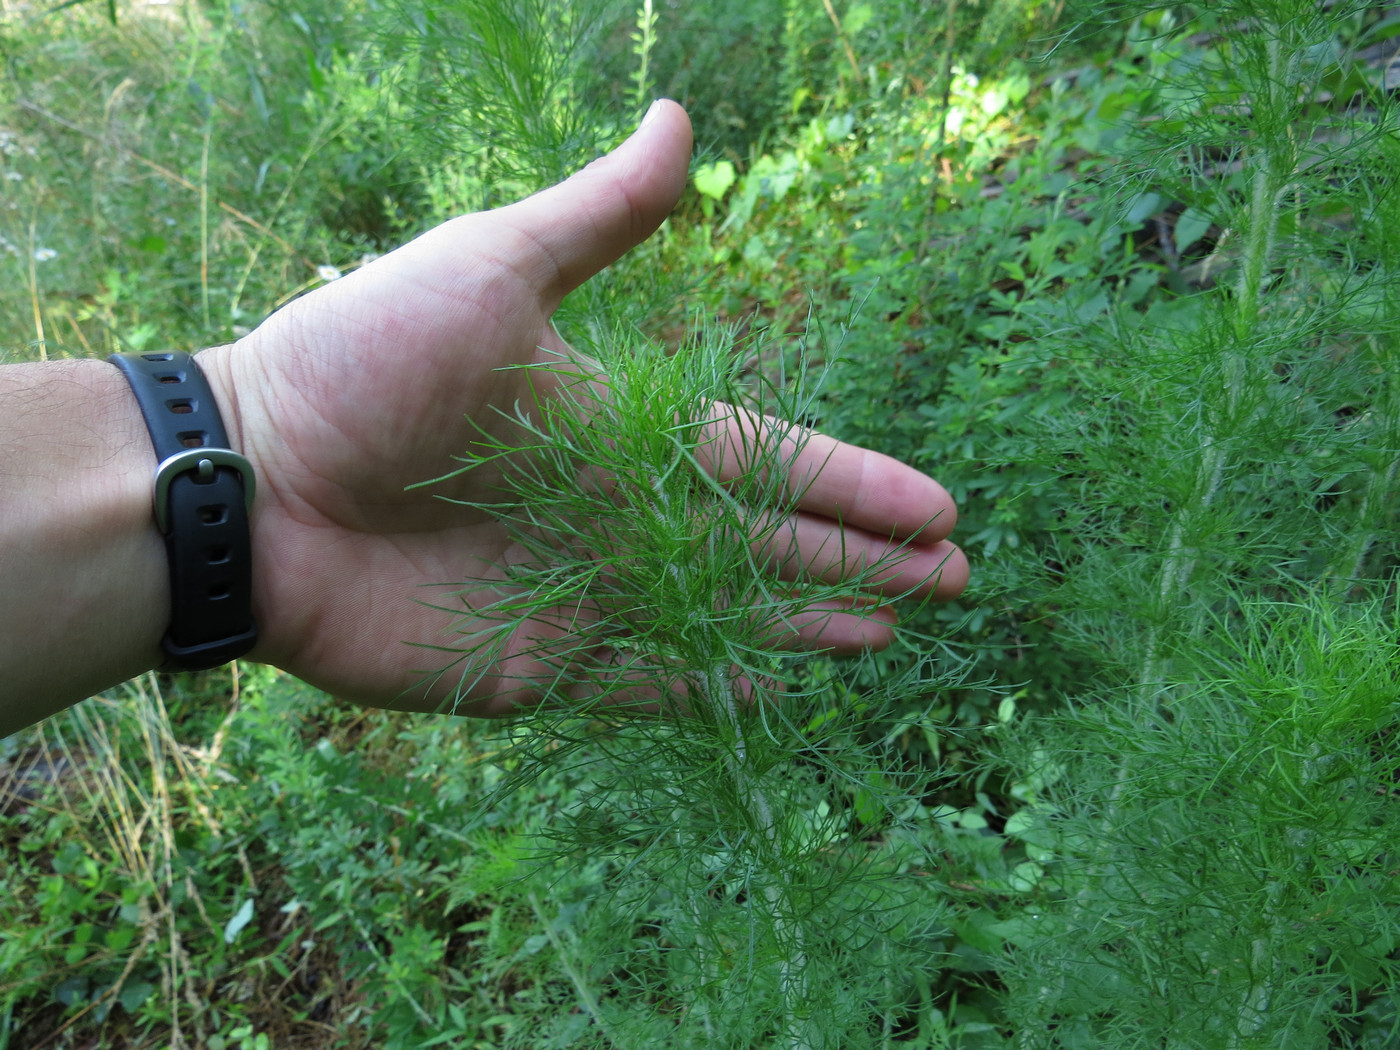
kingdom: Plantae
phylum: Tracheophyta
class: Magnoliopsida
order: Asterales
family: Asteraceae
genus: Eupatorium
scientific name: Eupatorium capillifolium
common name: Dog-fennel
